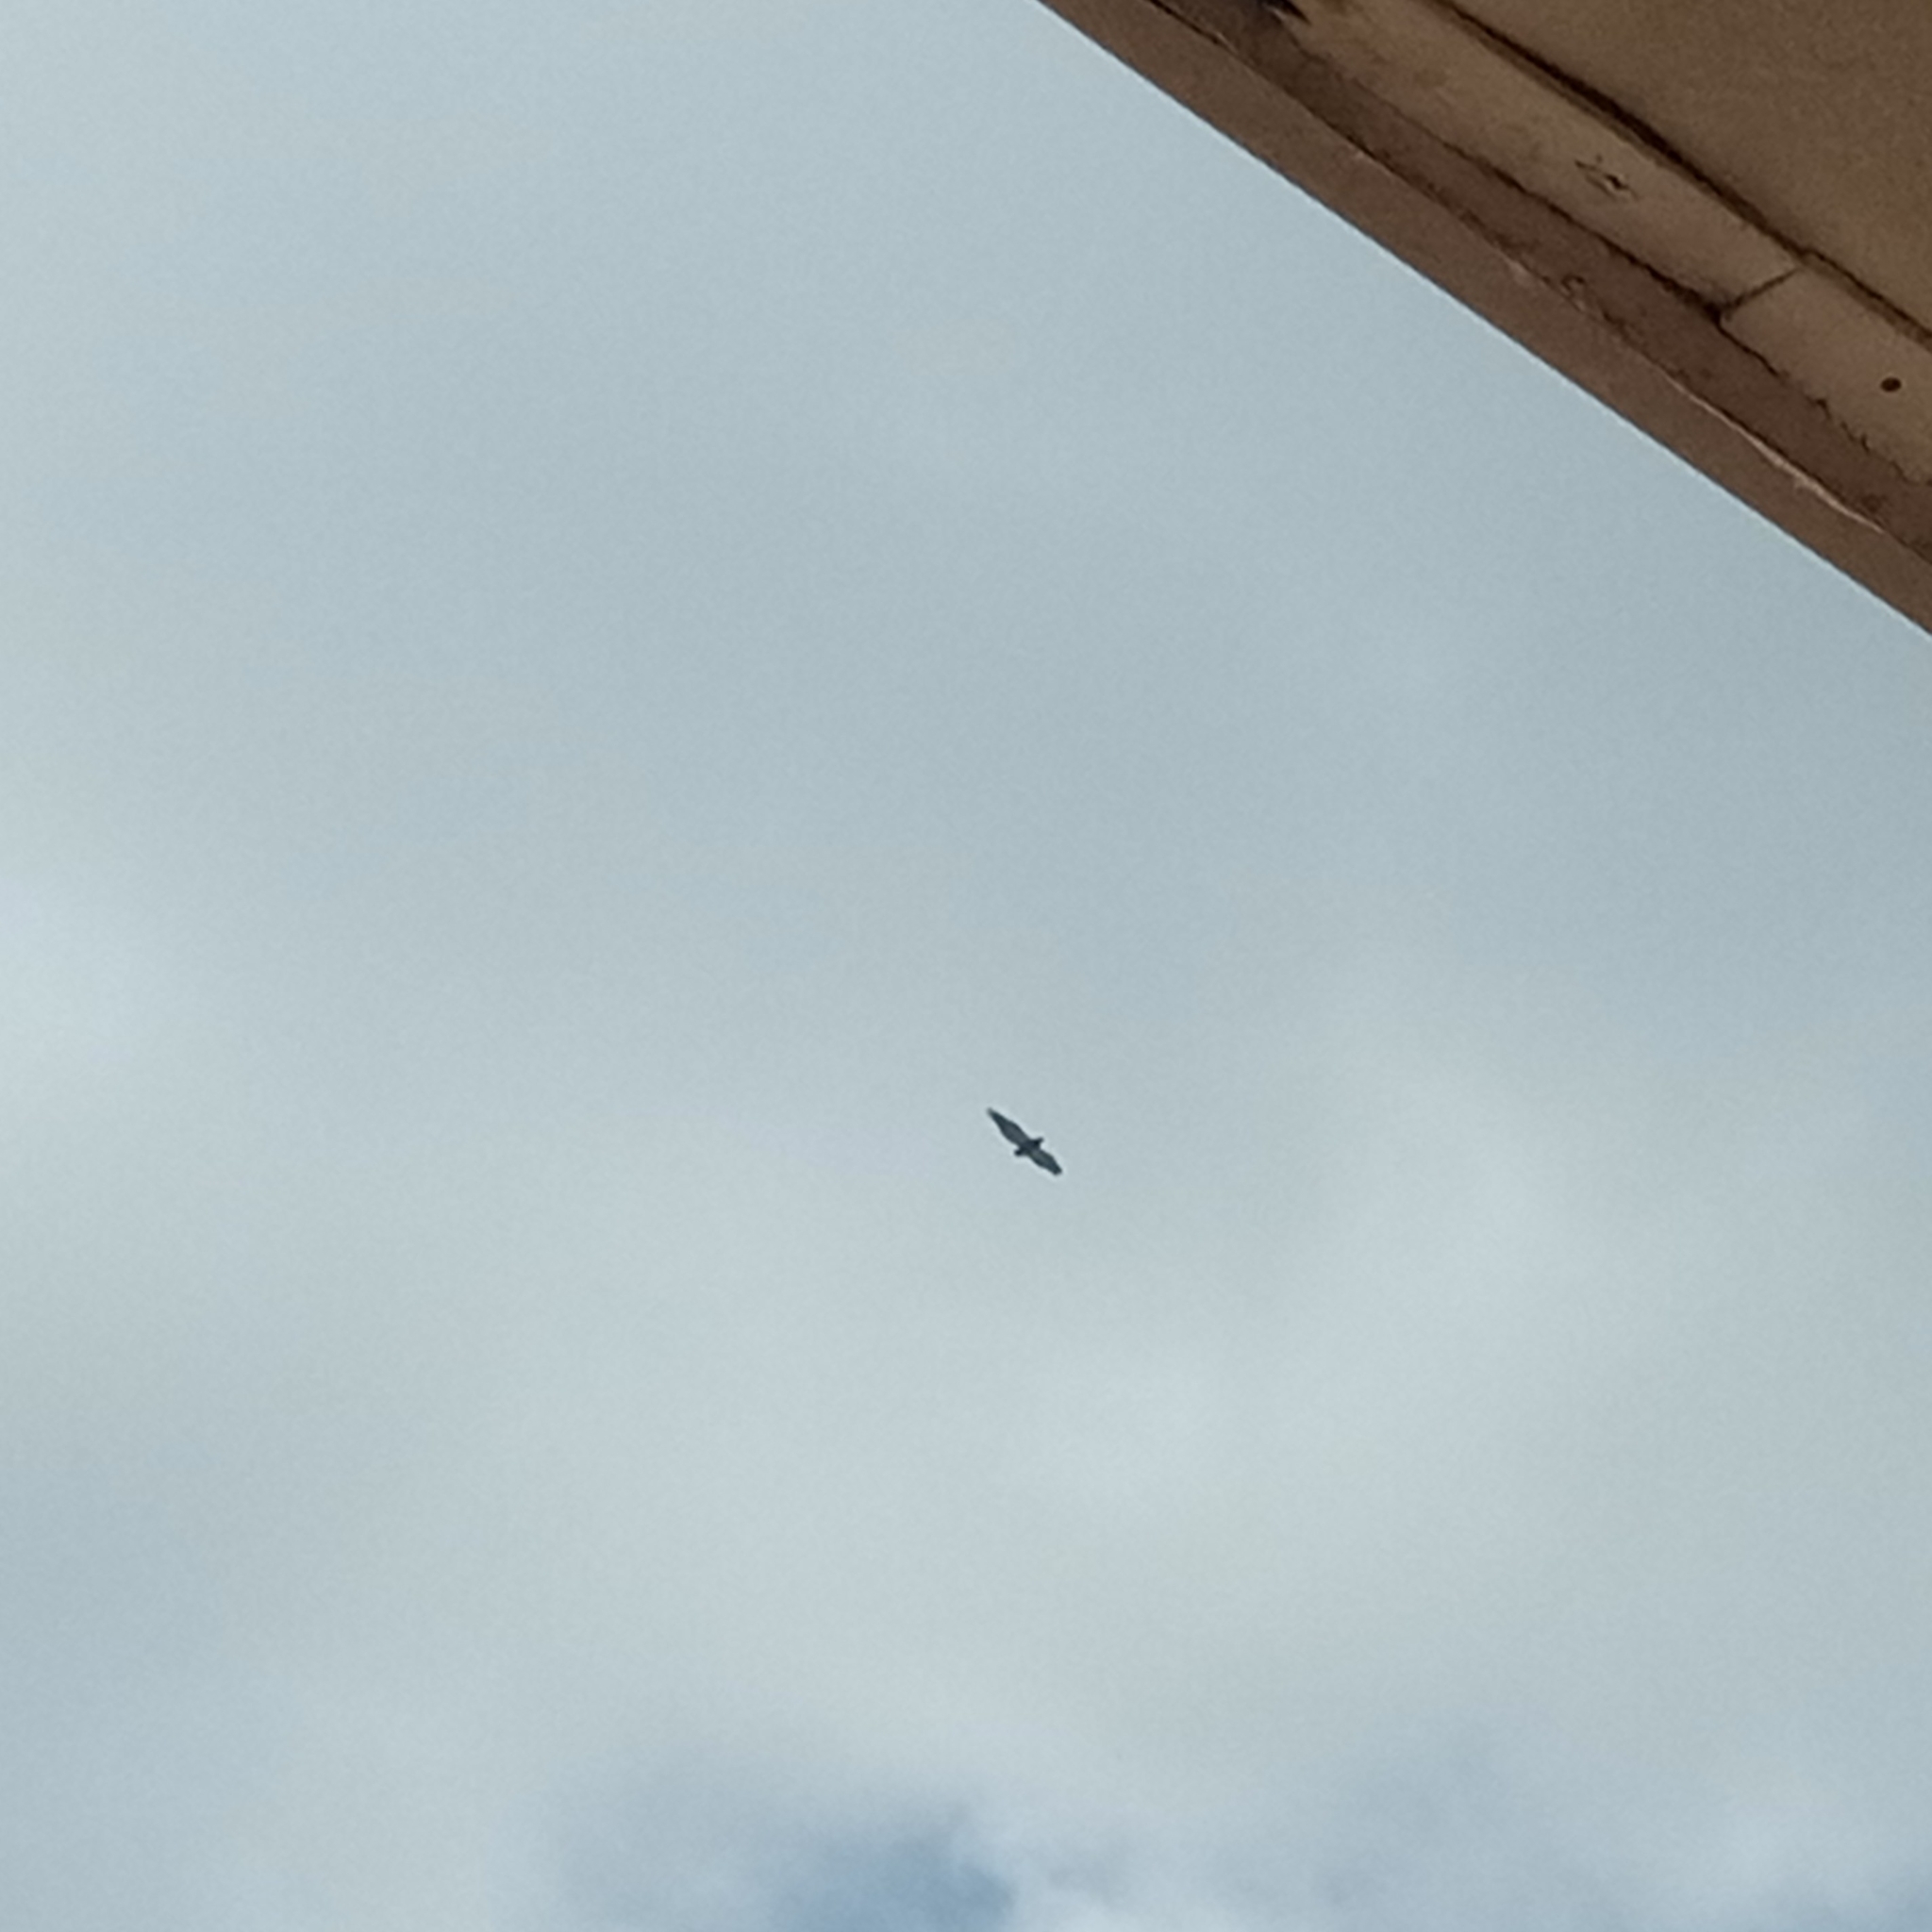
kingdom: Animalia
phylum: Chordata
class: Aves
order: Accipitriformes
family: Accipitridae
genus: Terathopius
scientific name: Terathopius ecaudatus
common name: Bateleur
